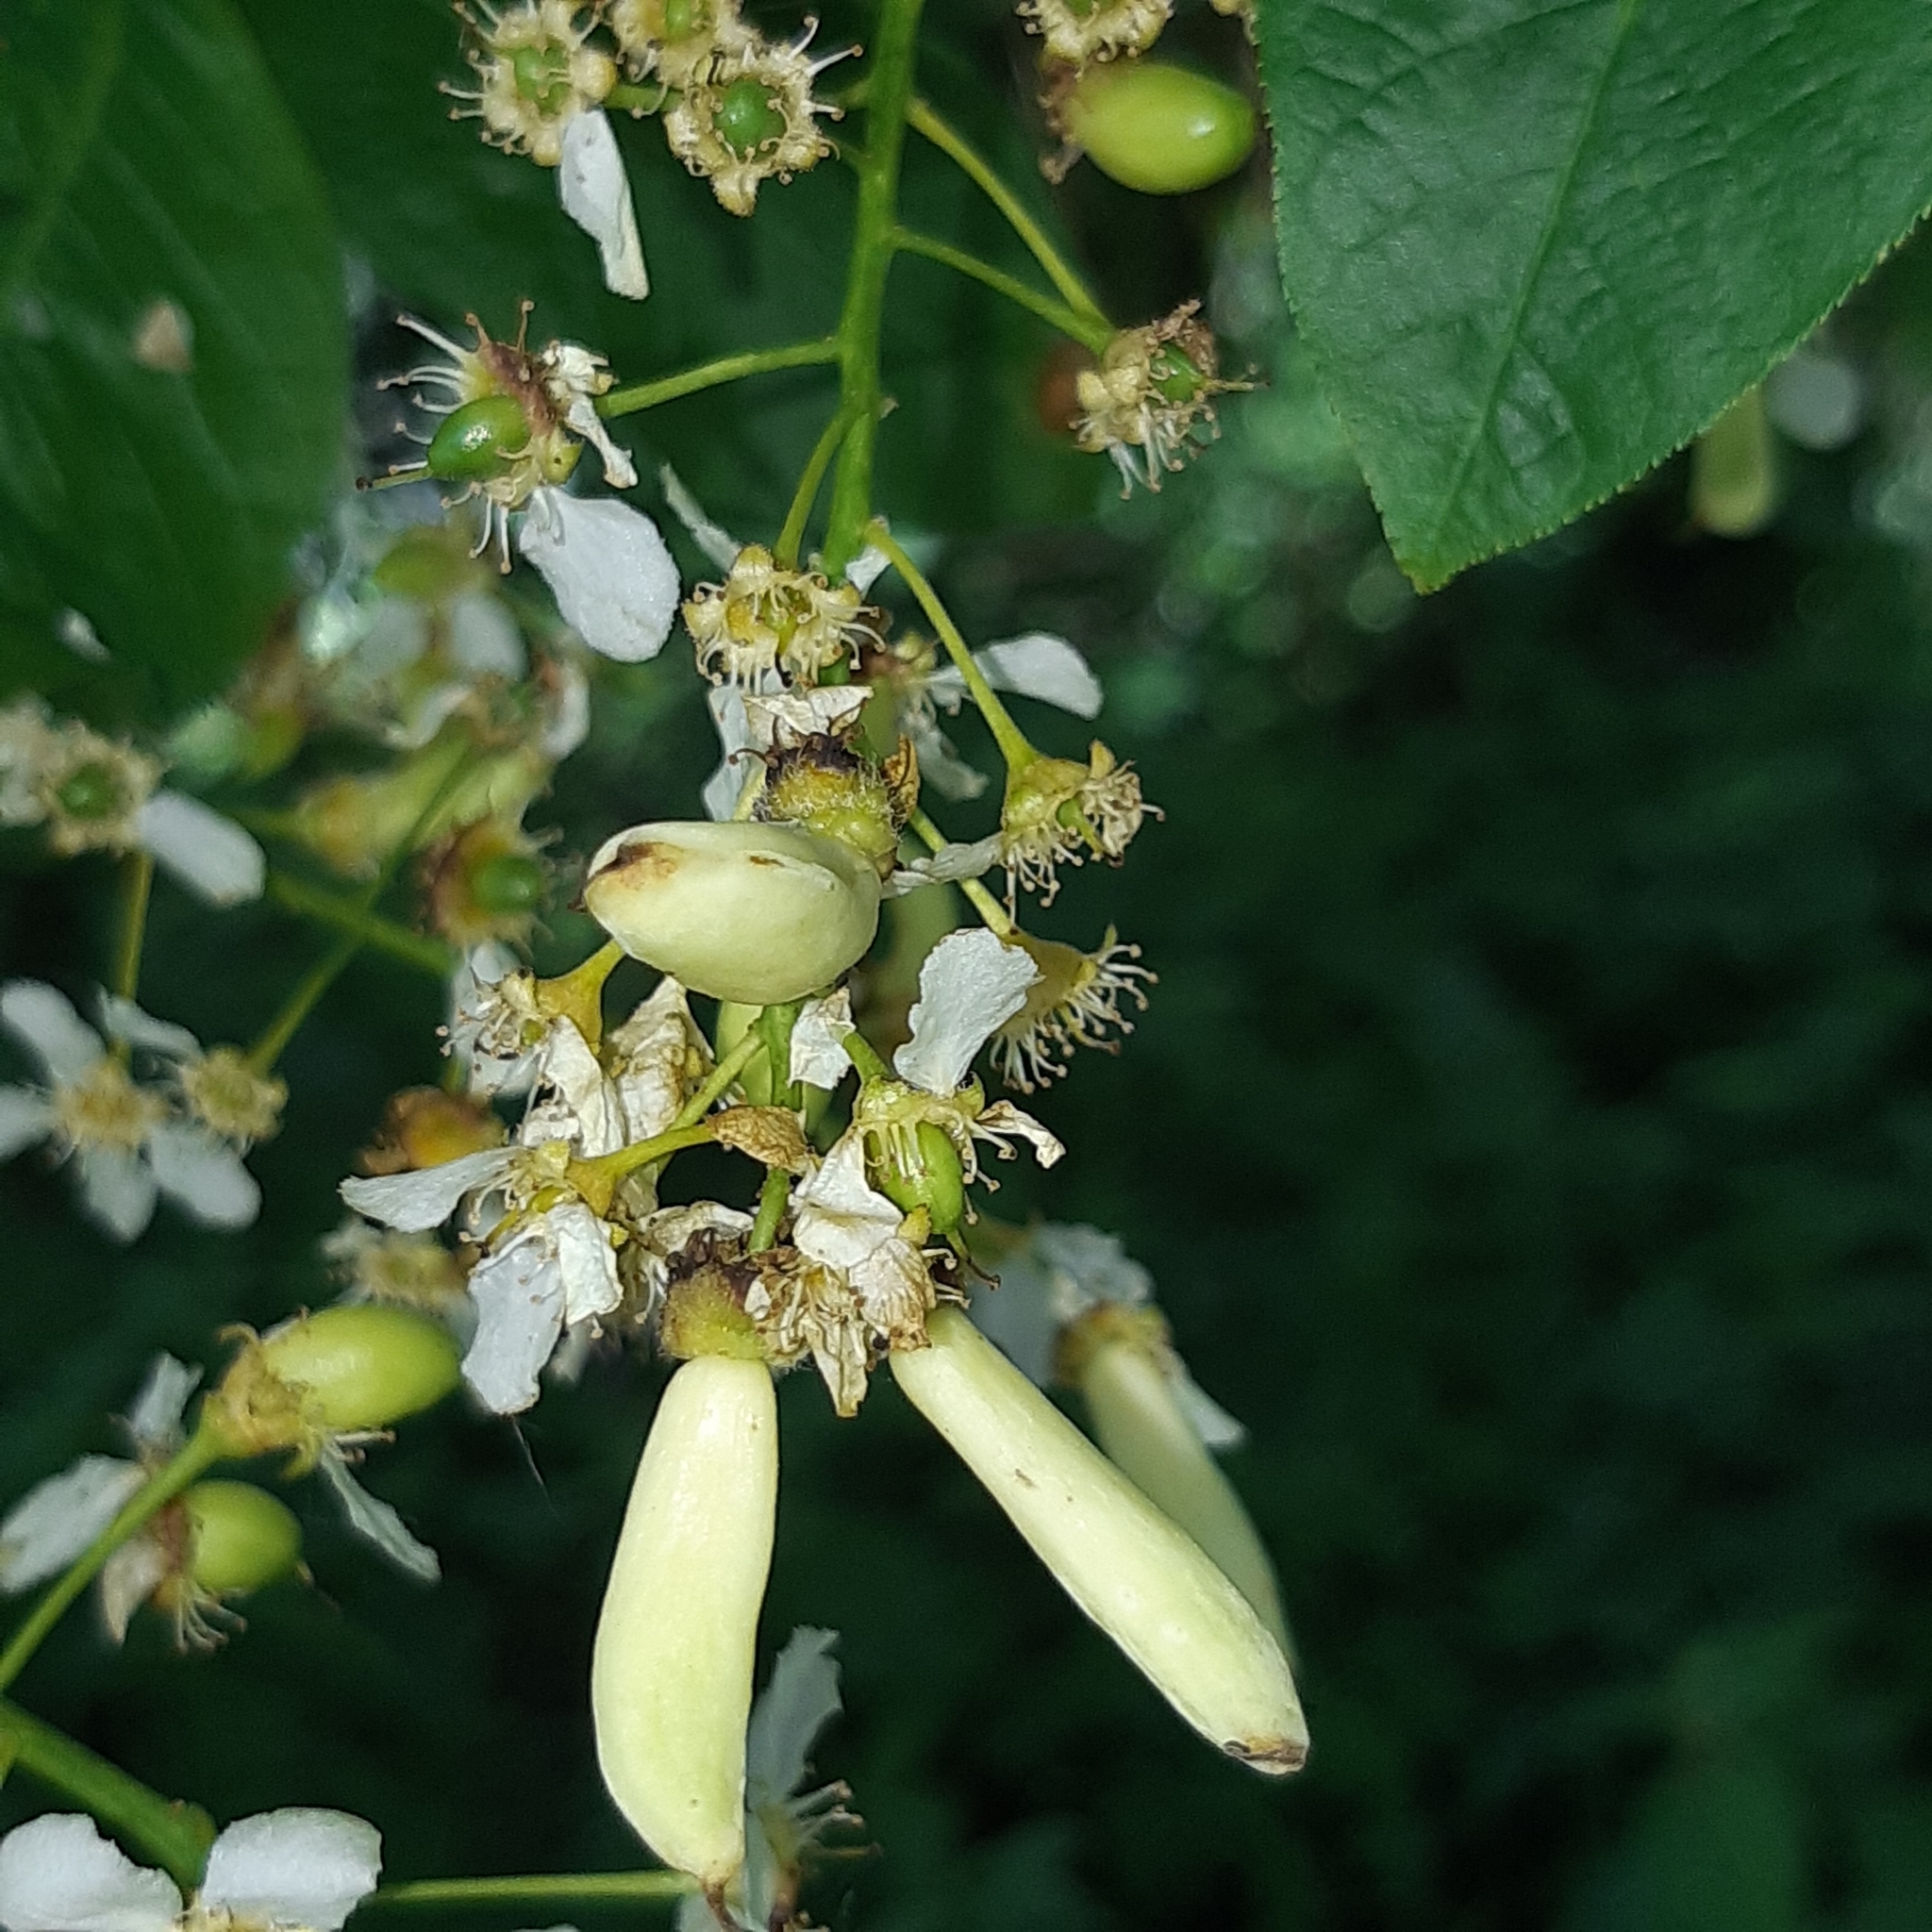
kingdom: Fungi
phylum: Ascomycota
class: Taphrinomycetes
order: Taphrinales
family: Taphrinaceae
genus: Taphrina
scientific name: Taphrina padi
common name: Bird cherry pocket
